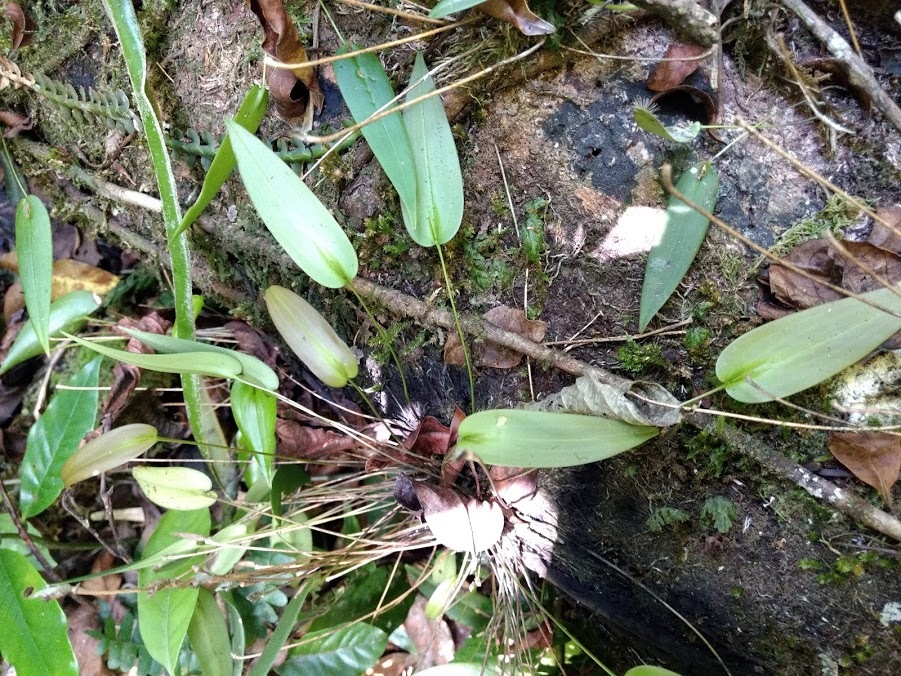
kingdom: Plantae
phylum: Tracheophyta
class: Liliopsida
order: Asparagales
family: Orchidaceae
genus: Pleurothallis
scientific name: Pleurothallis pansamalae
